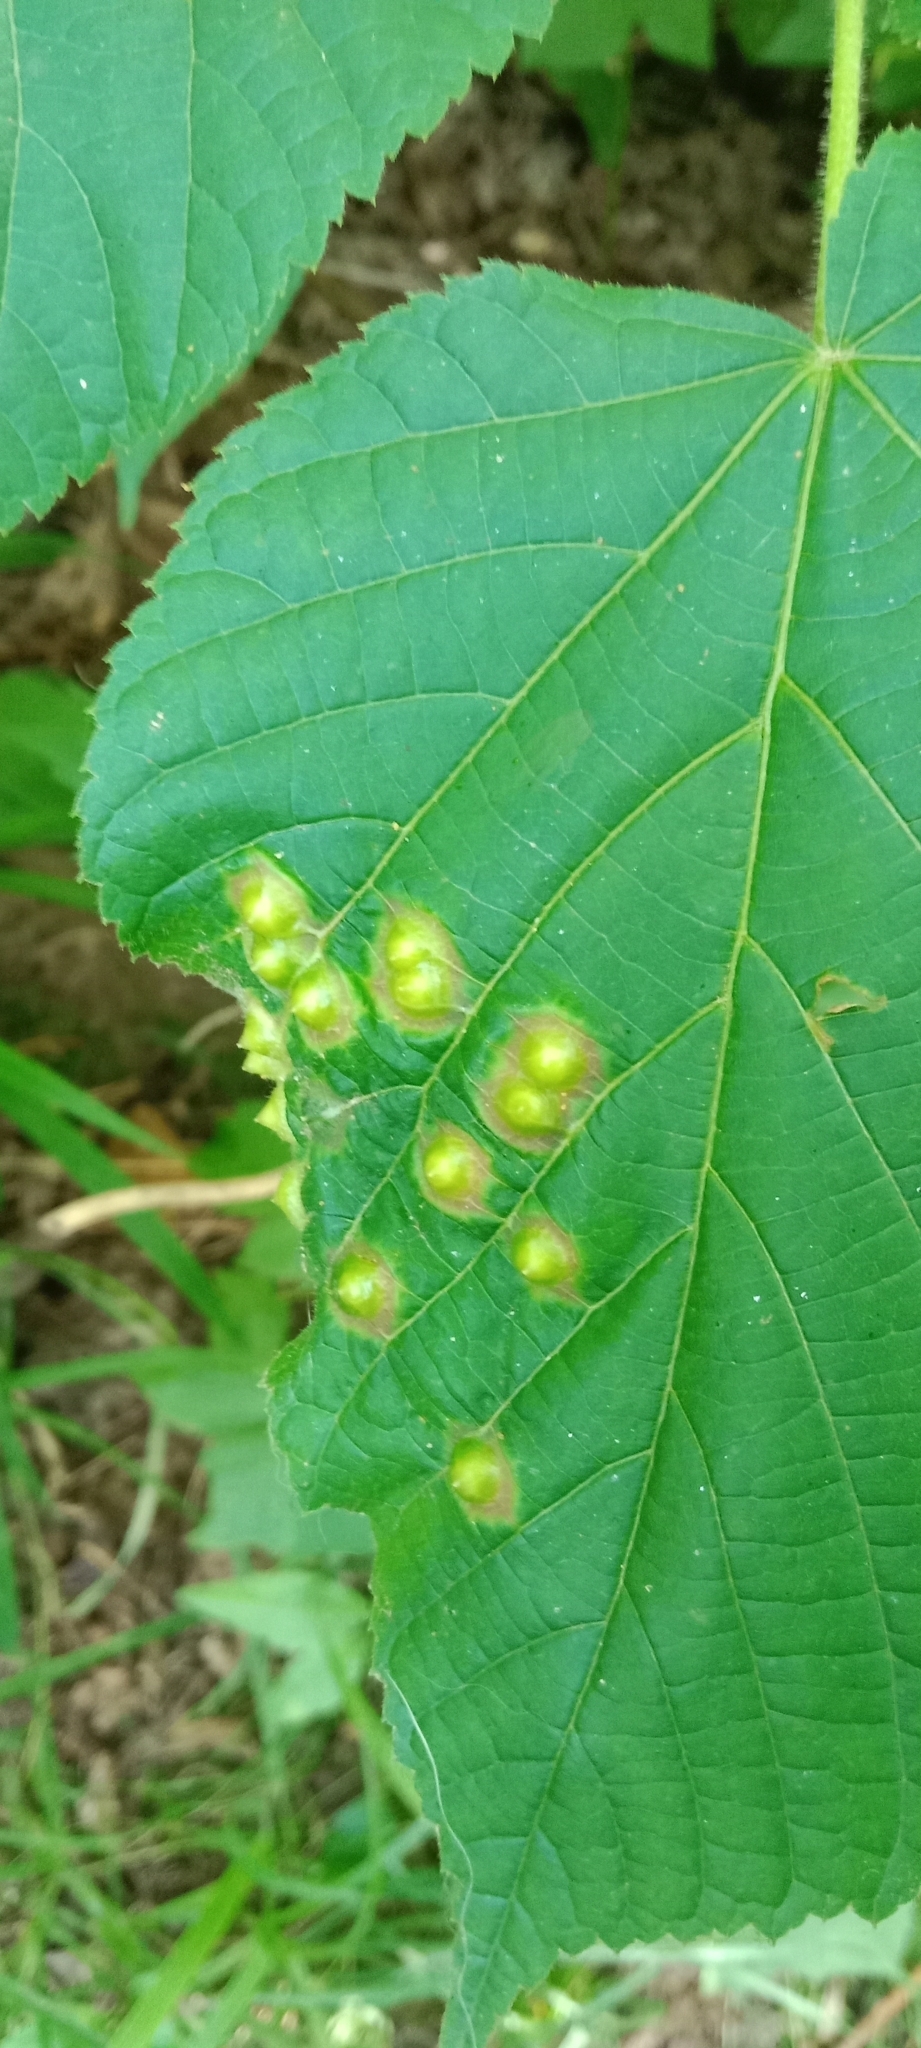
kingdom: Animalia
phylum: Arthropoda
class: Insecta
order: Diptera
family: Cecidomyiidae
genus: Didymomyia
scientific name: Didymomyia tiliacea
